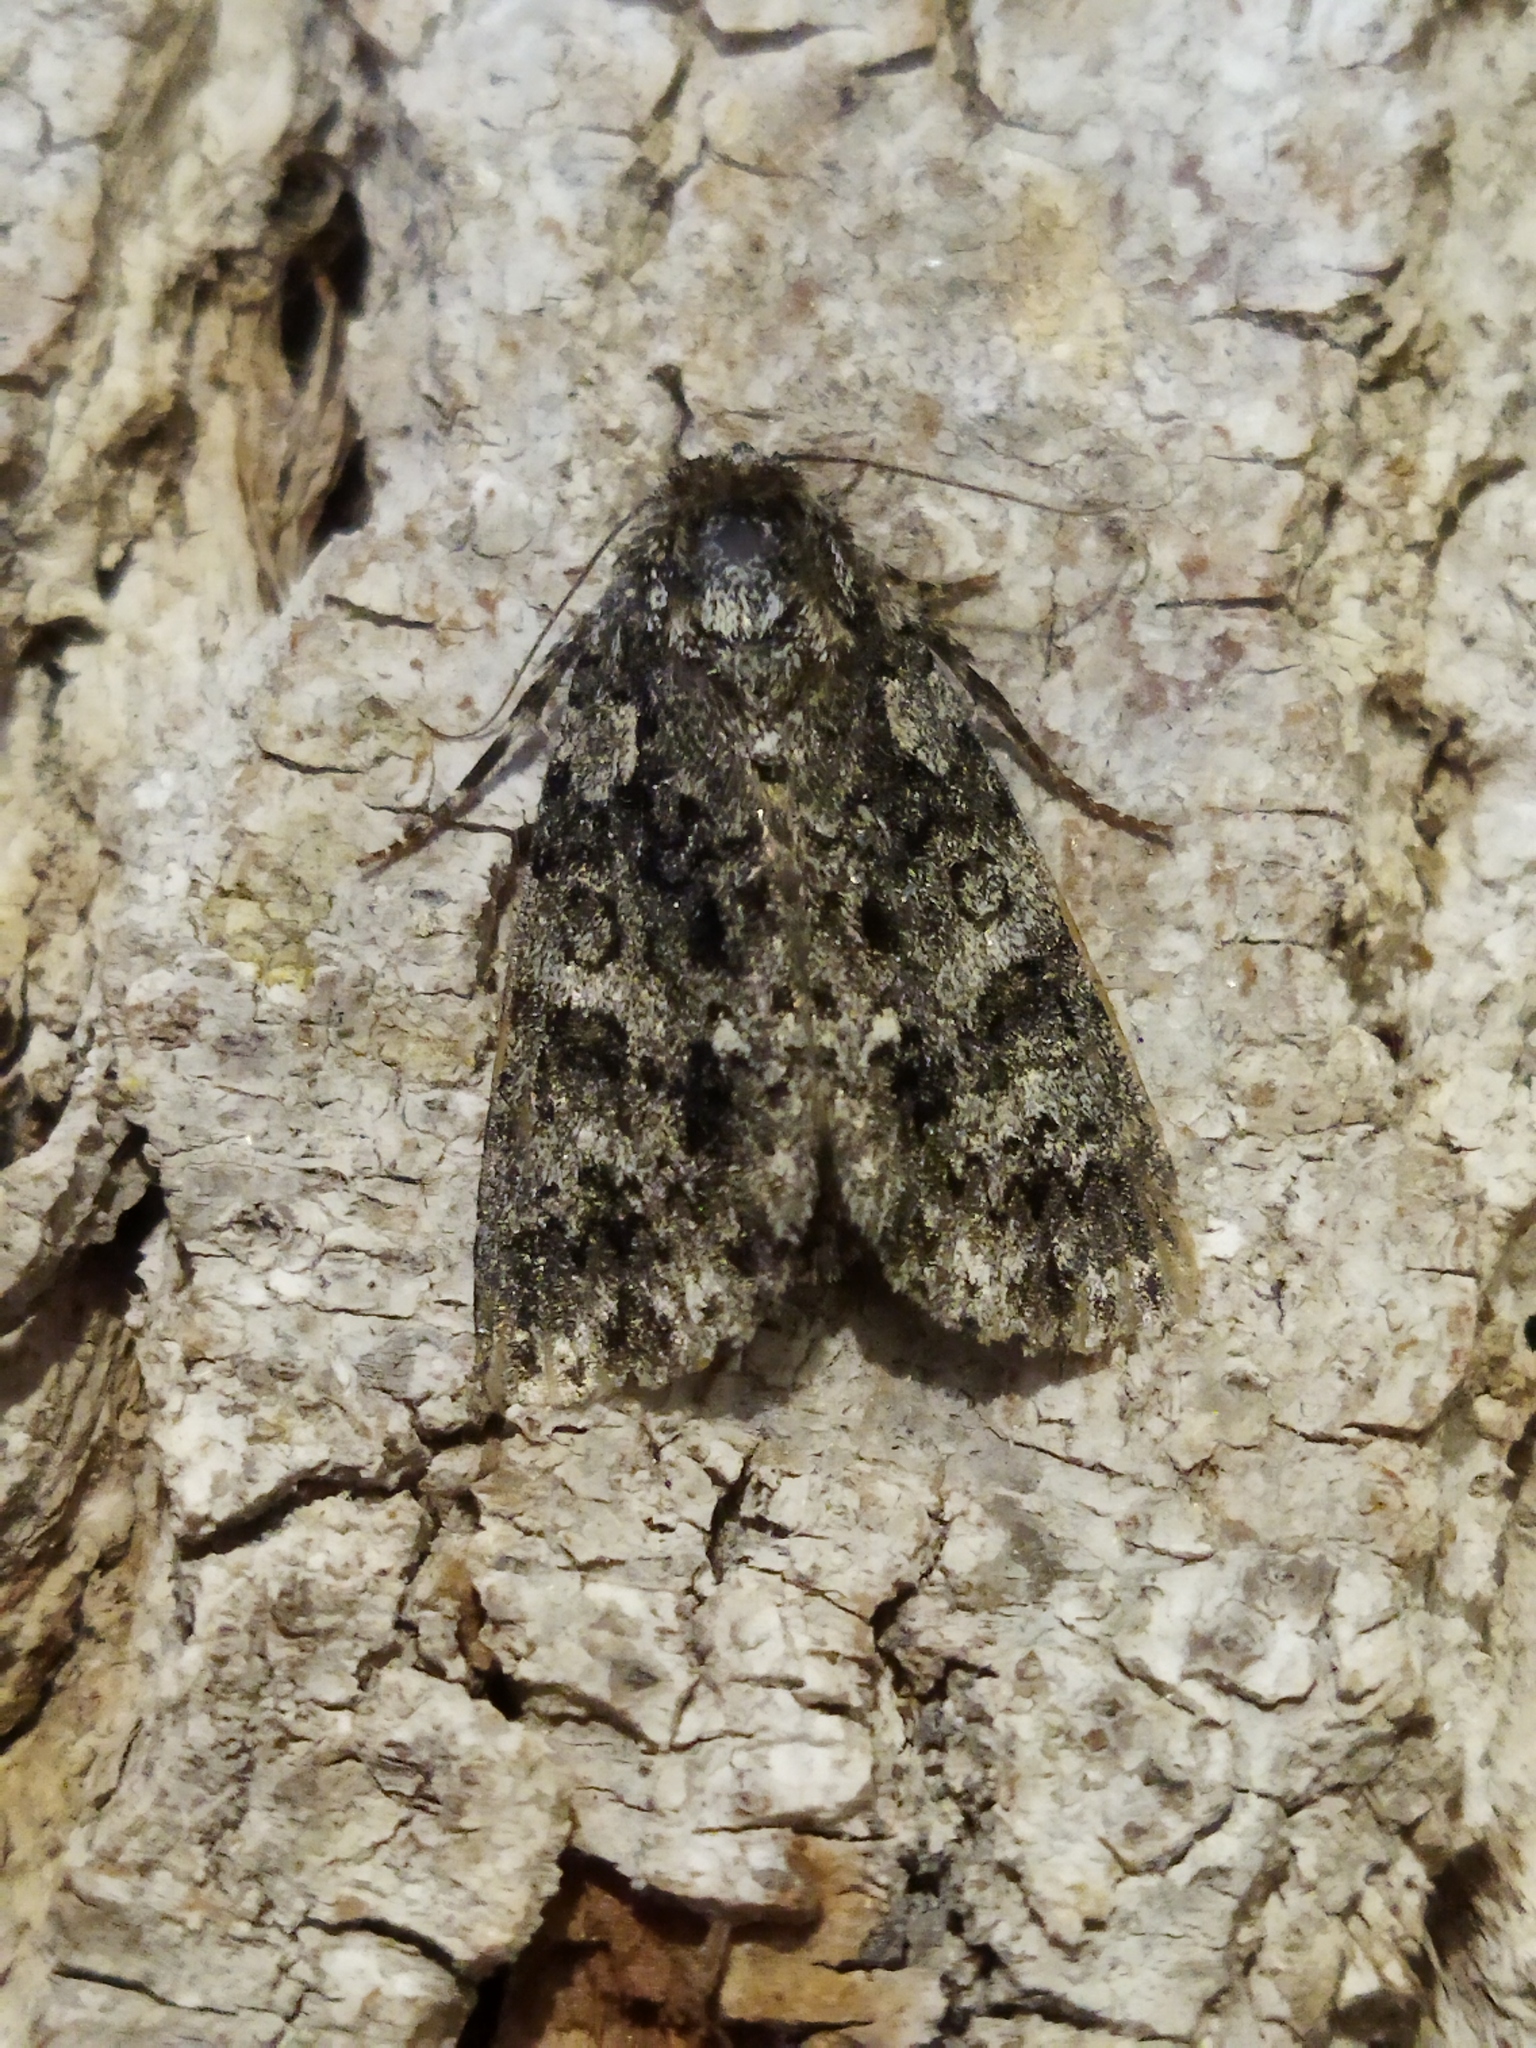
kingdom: Animalia
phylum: Arthropoda
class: Insecta
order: Lepidoptera
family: Noctuidae
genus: Acronicta
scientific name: Acronicta rumicis
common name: Knot grass
